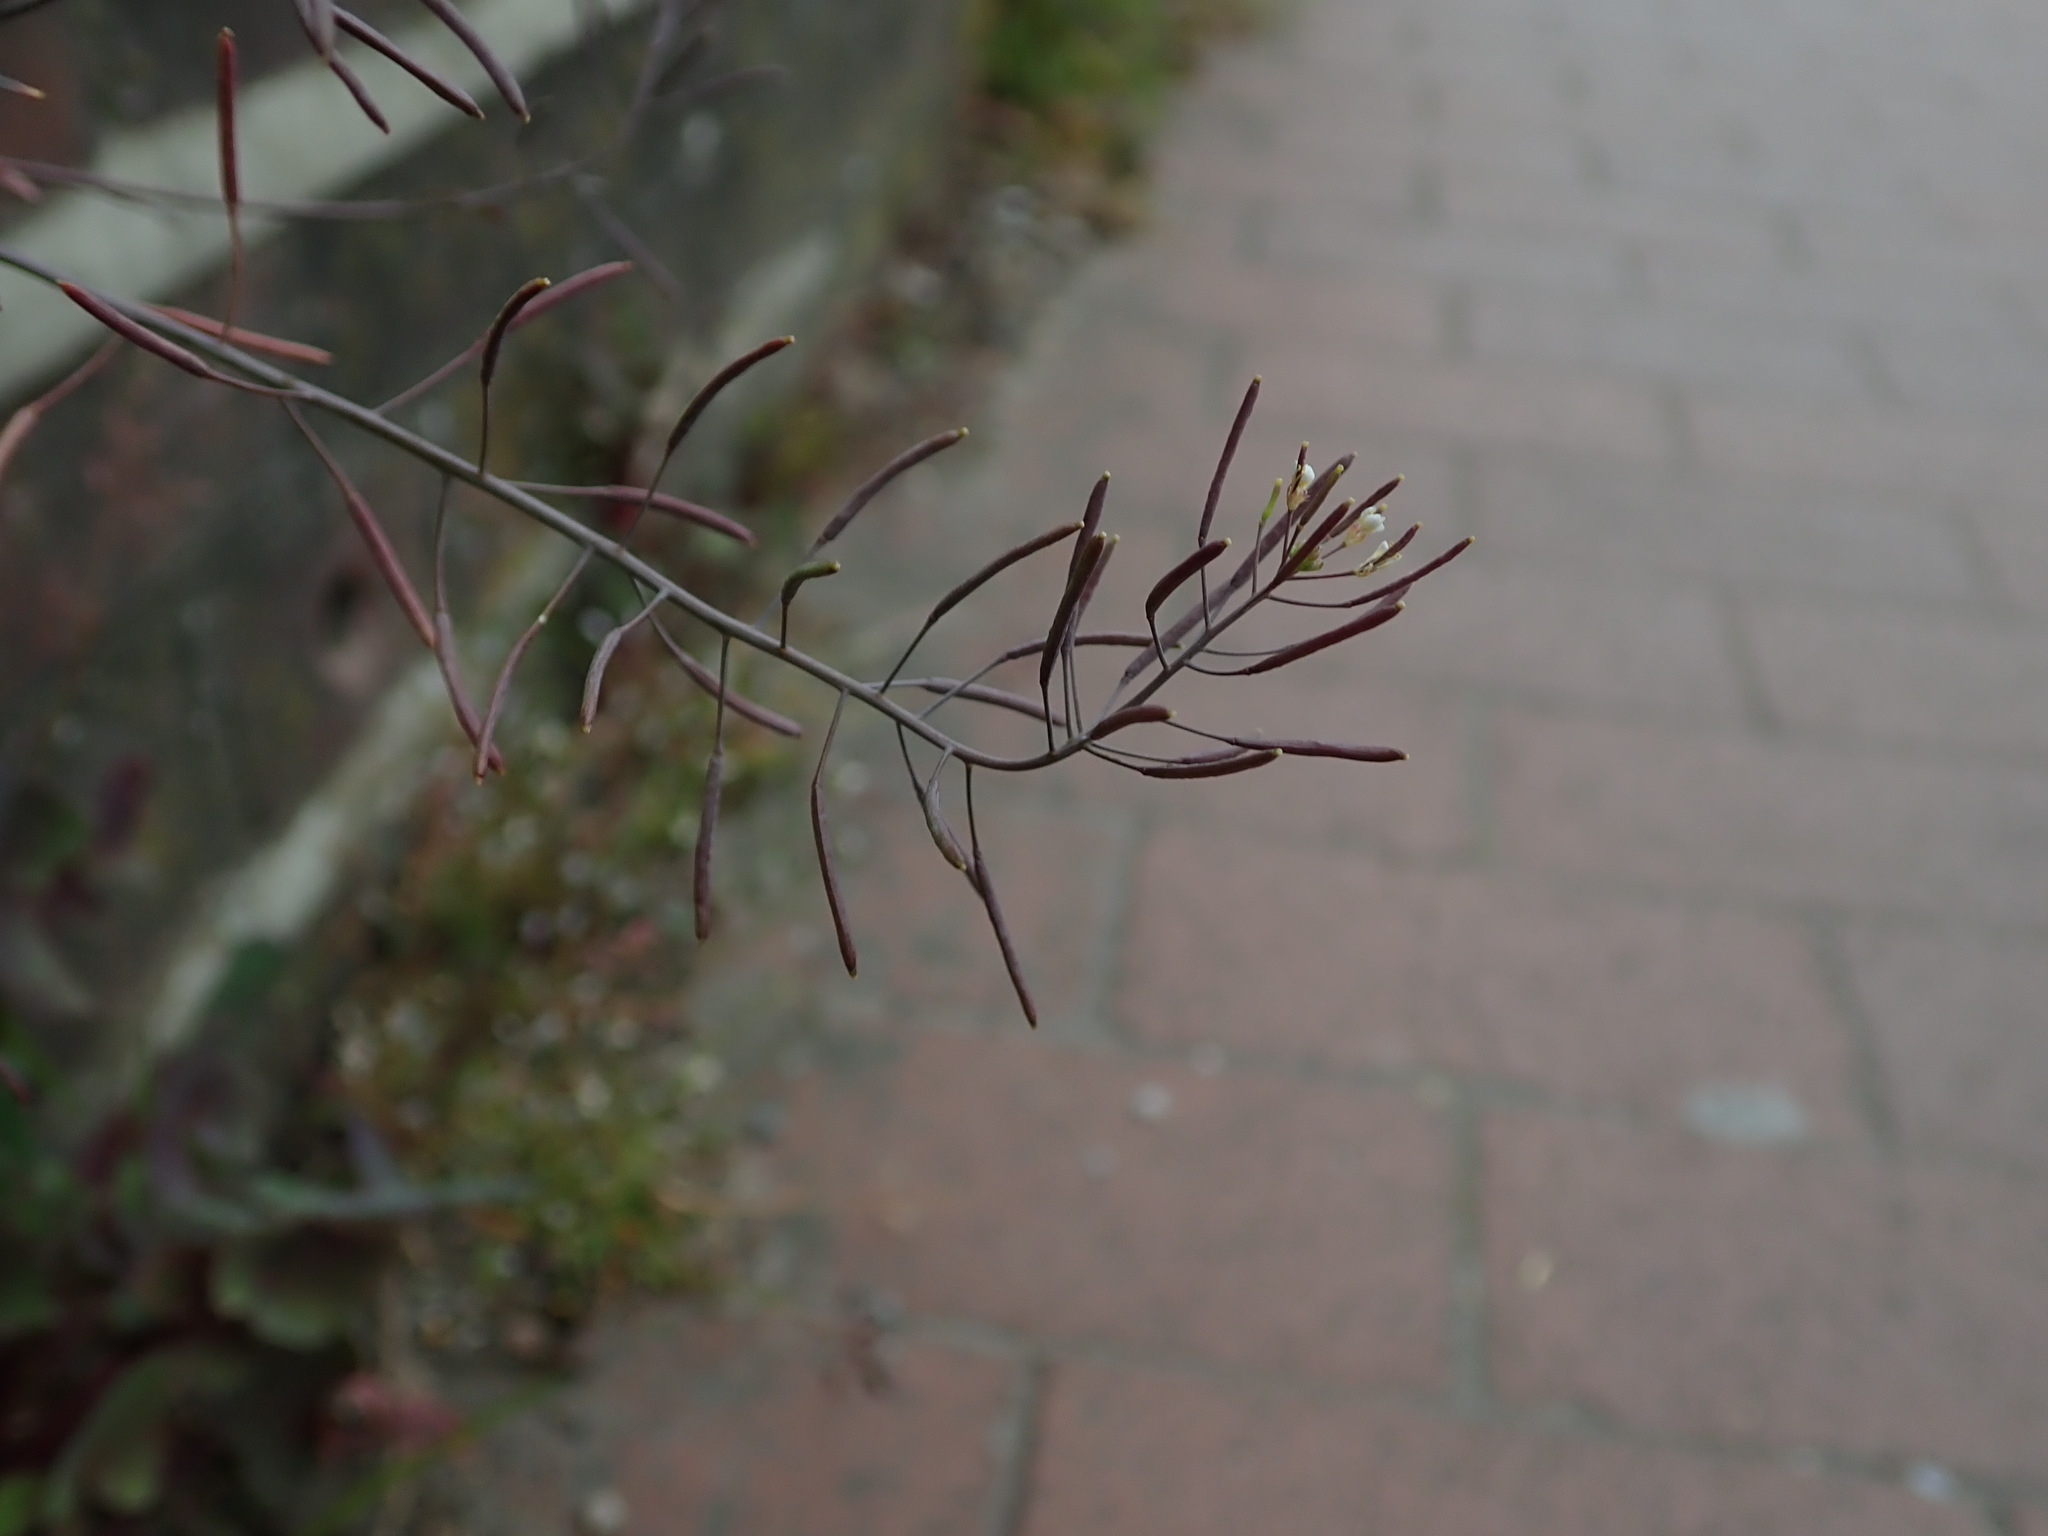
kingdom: Plantae
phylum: Tracheophyta
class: Magnoliopsida
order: Brassicales
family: Brassicaceae
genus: Arabidopsis
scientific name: Arabidopsis thaliana
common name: Thale cress
